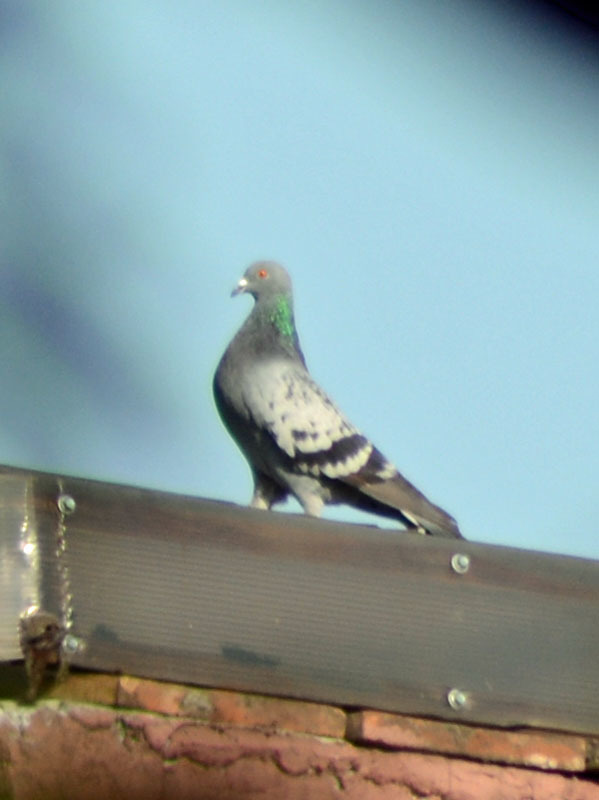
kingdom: Animalia
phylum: Chordata
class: Aves
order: Columbiformes
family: Columbidae
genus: Columba
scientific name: Columba livia
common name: Rock pigeon
